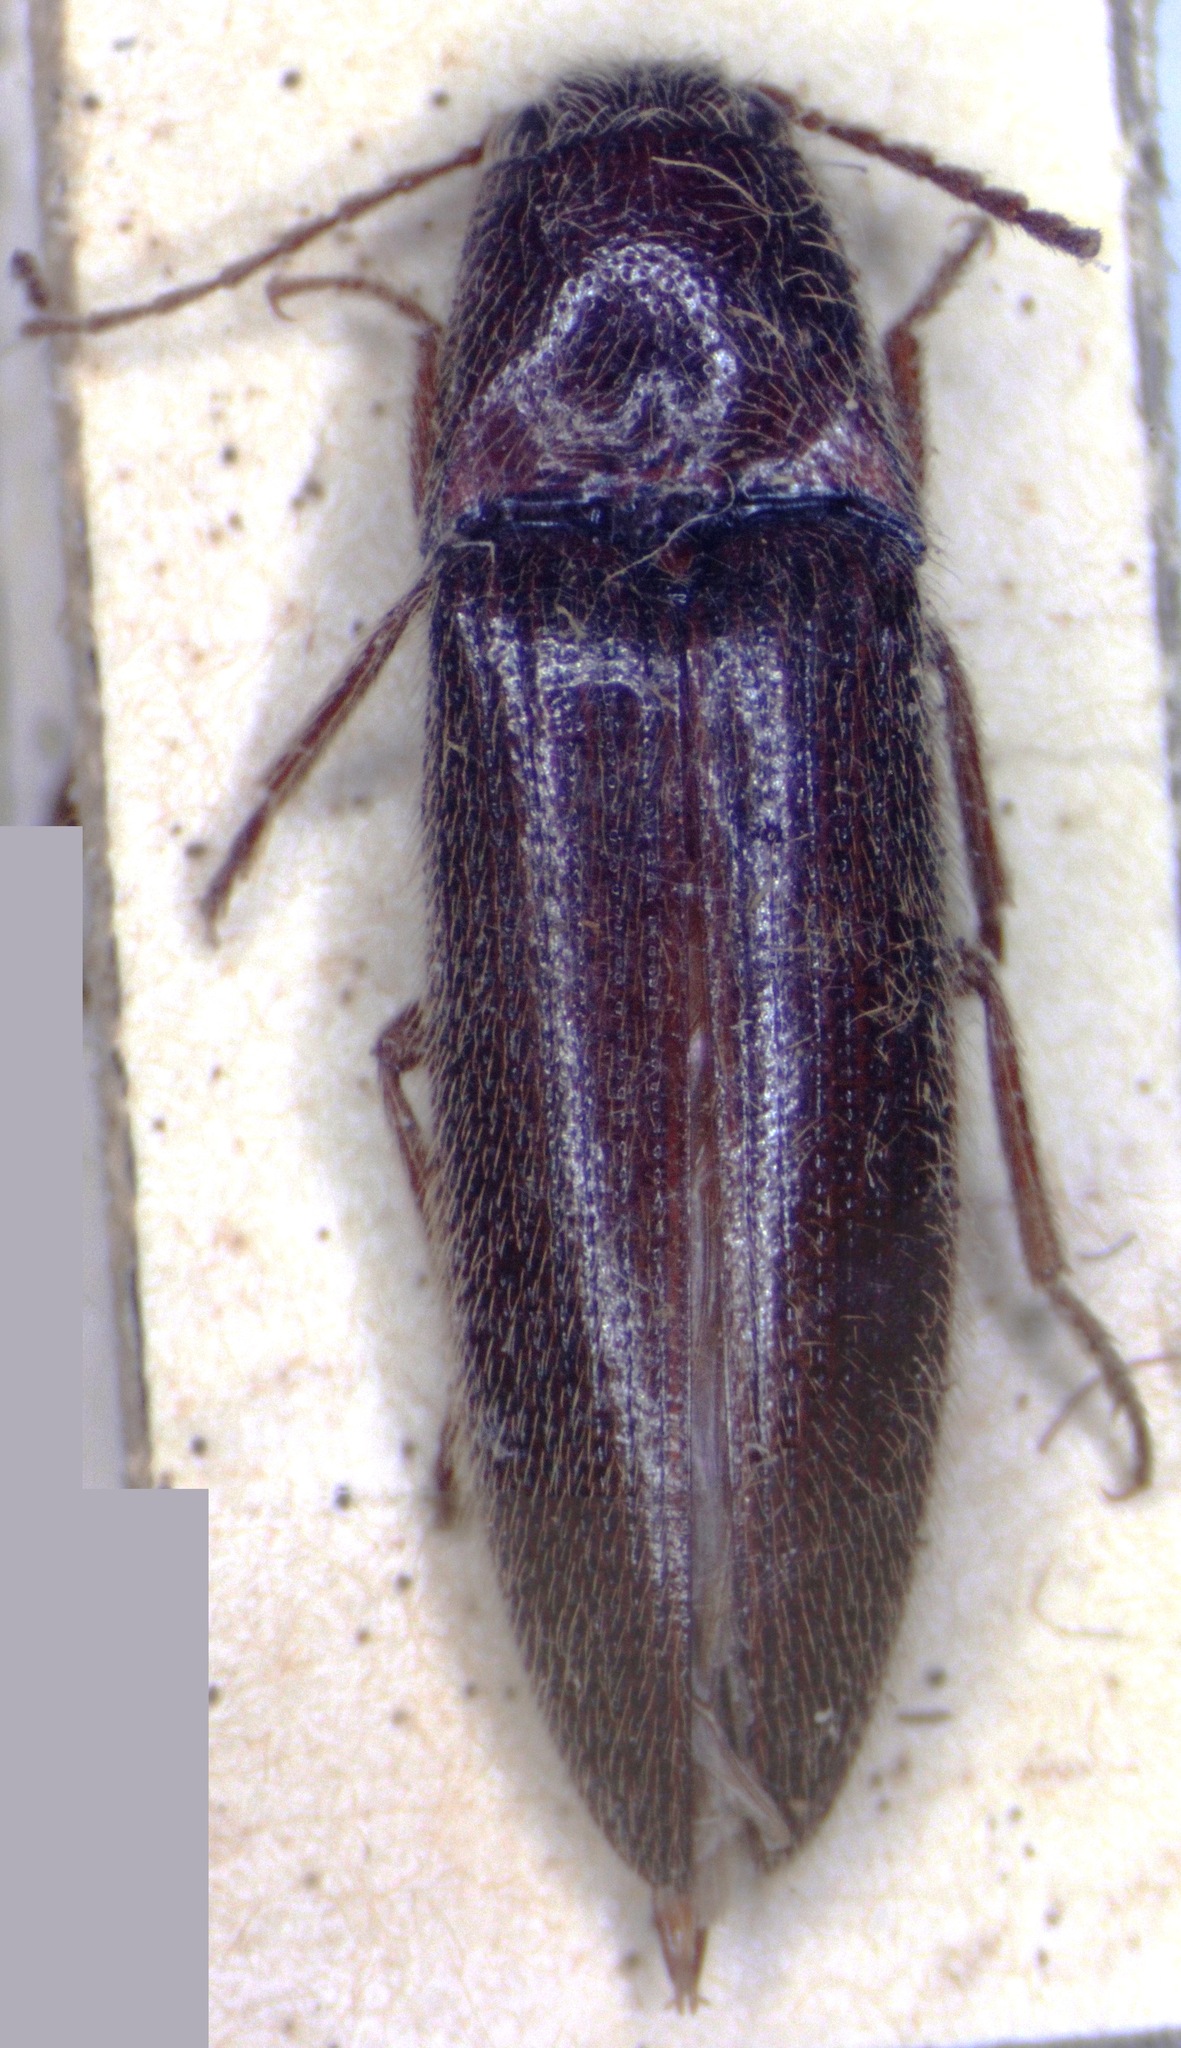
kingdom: Animalia
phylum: Arthropoda
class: Insecta
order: Coleoptera
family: Elateridae
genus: Dipropus
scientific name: Dipropus
